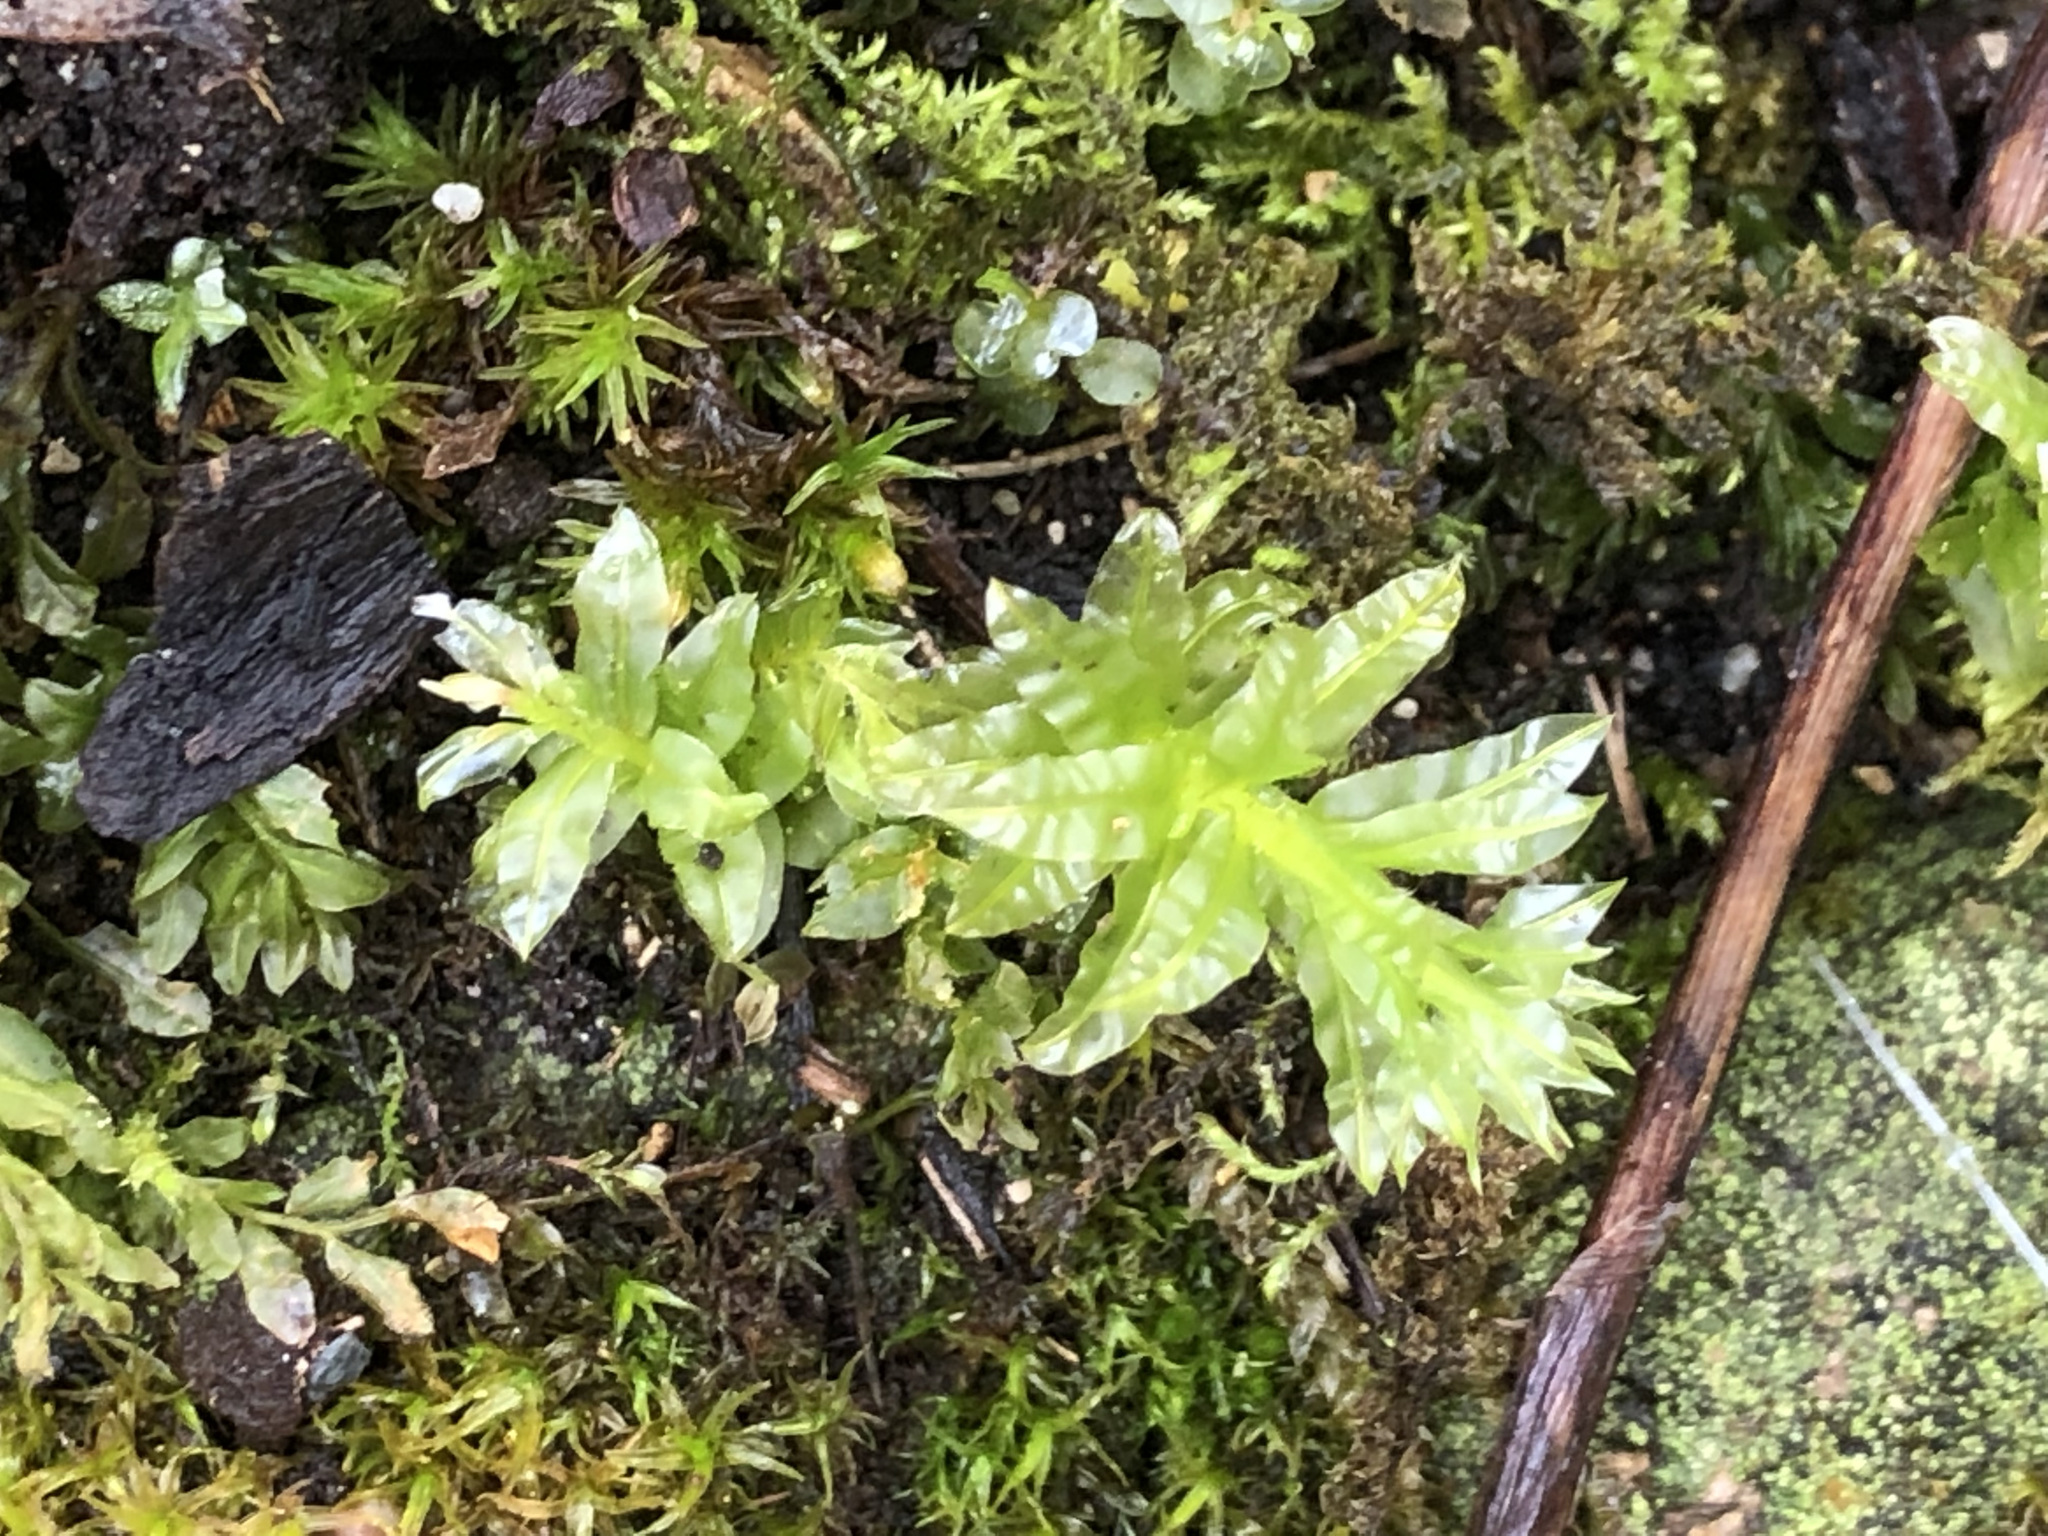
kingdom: Plantae
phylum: Bryophyta
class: Bryopsida
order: Bryales
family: Mniaceae
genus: Plagiomnium
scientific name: Plagiomnium undulatum
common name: Hart's-tongue thyme-moss
